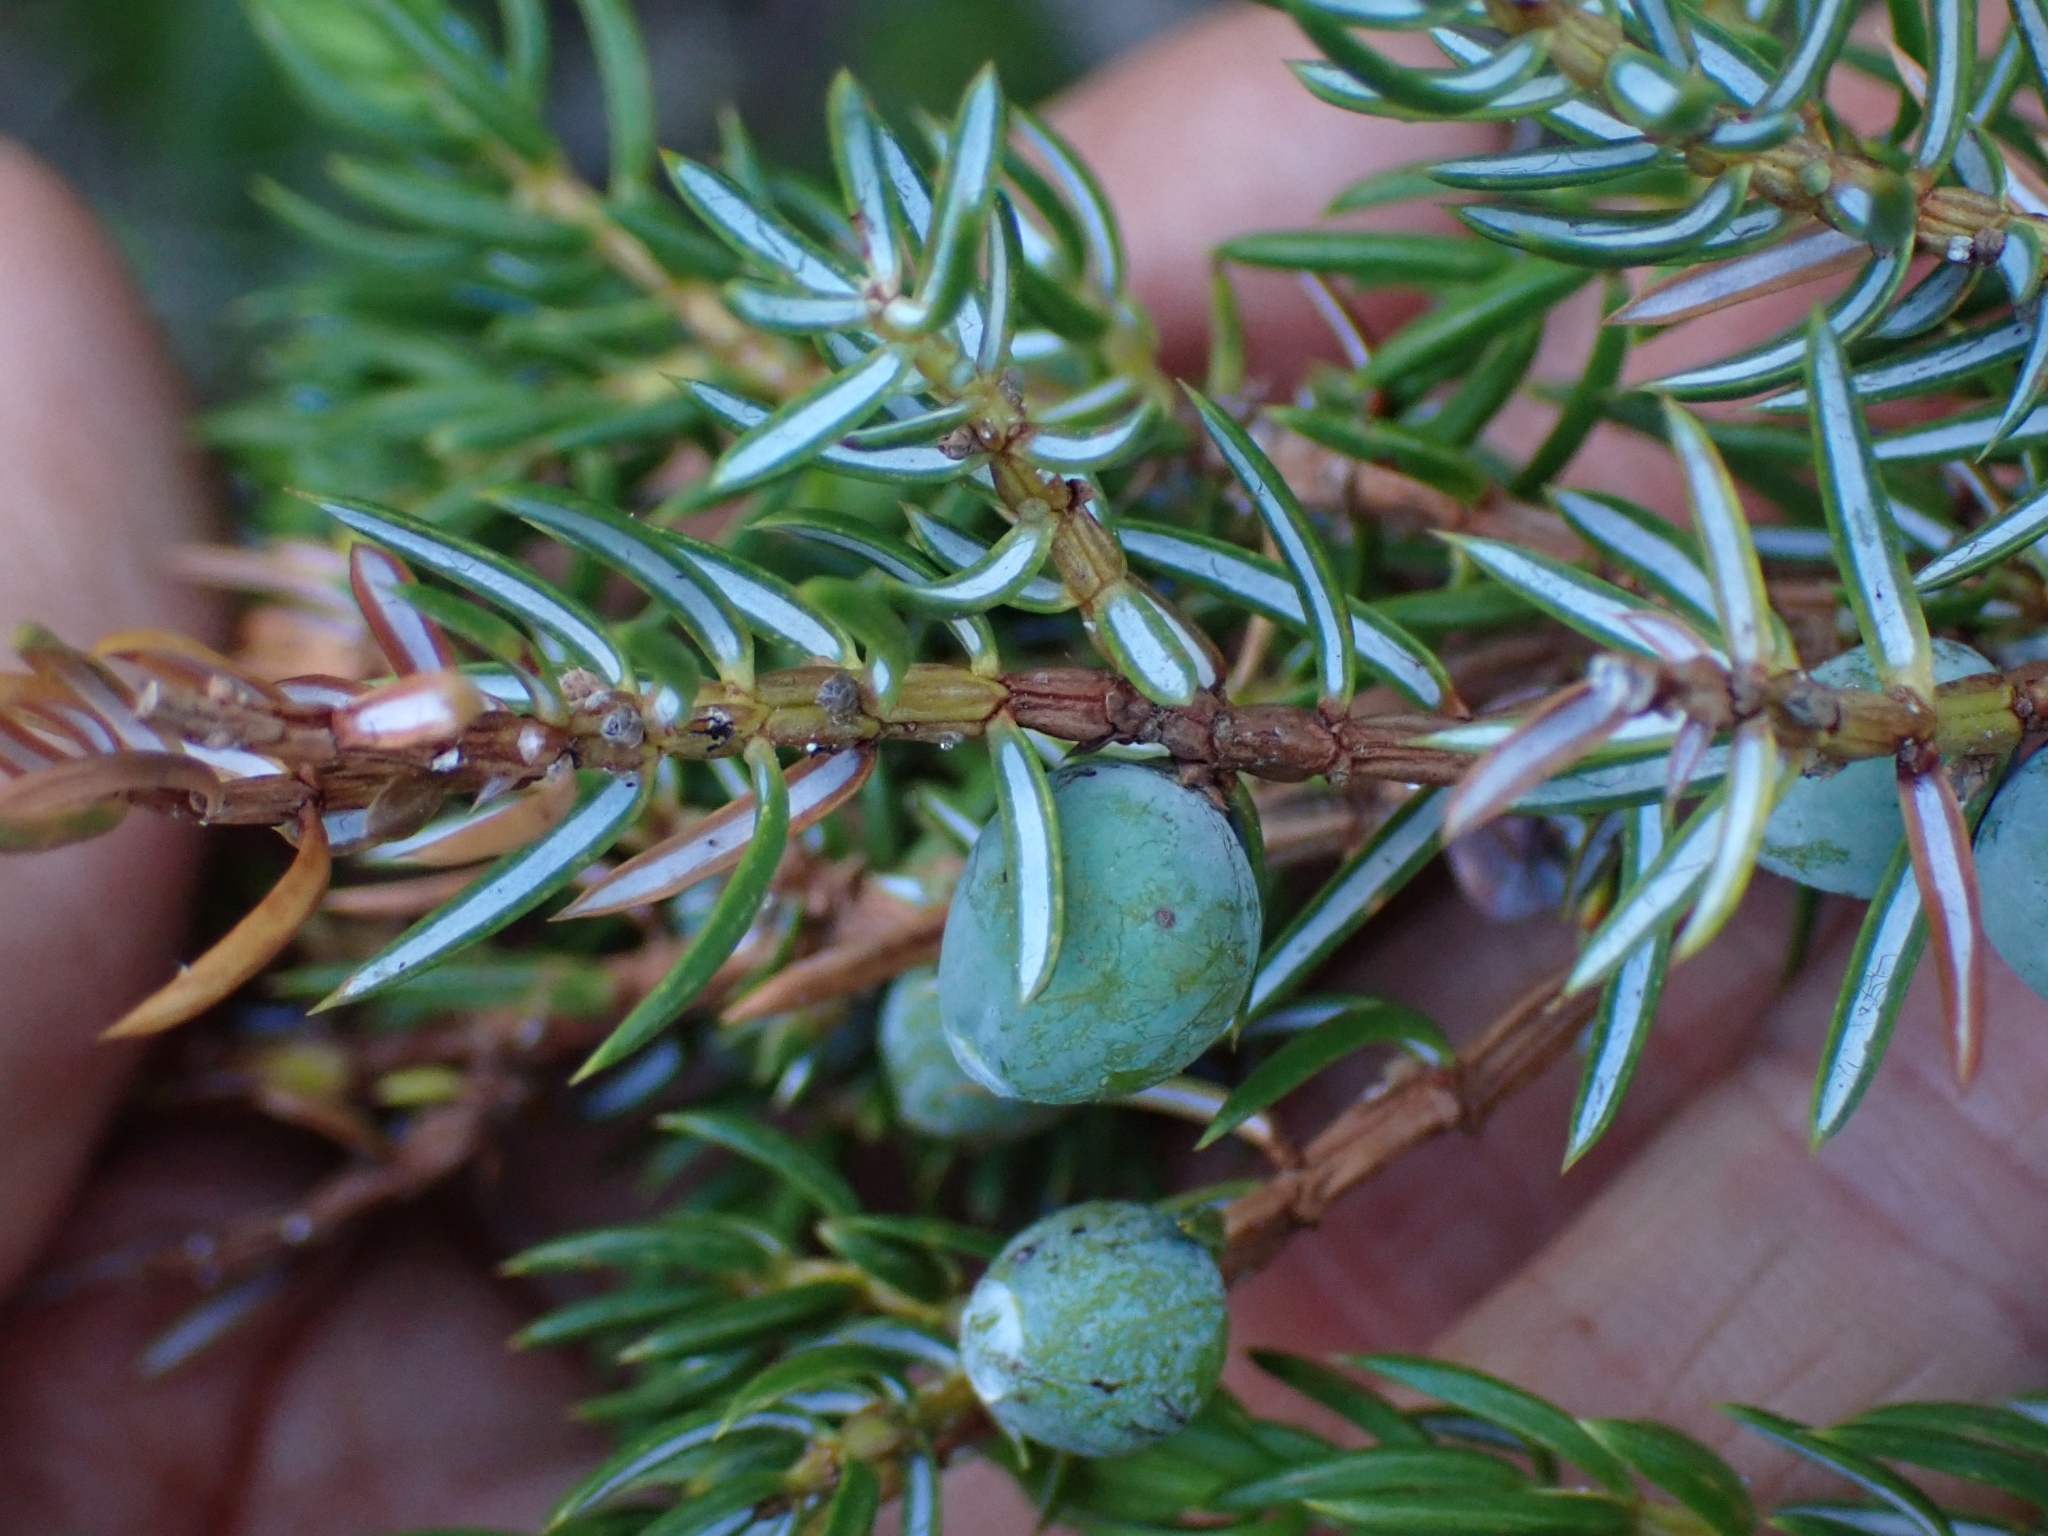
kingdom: Plantae
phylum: Tracheophyta
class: Pinopsida
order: Pinales
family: Cupressaceae
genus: Juniperus
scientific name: Juniperus communis
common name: Common juniper
